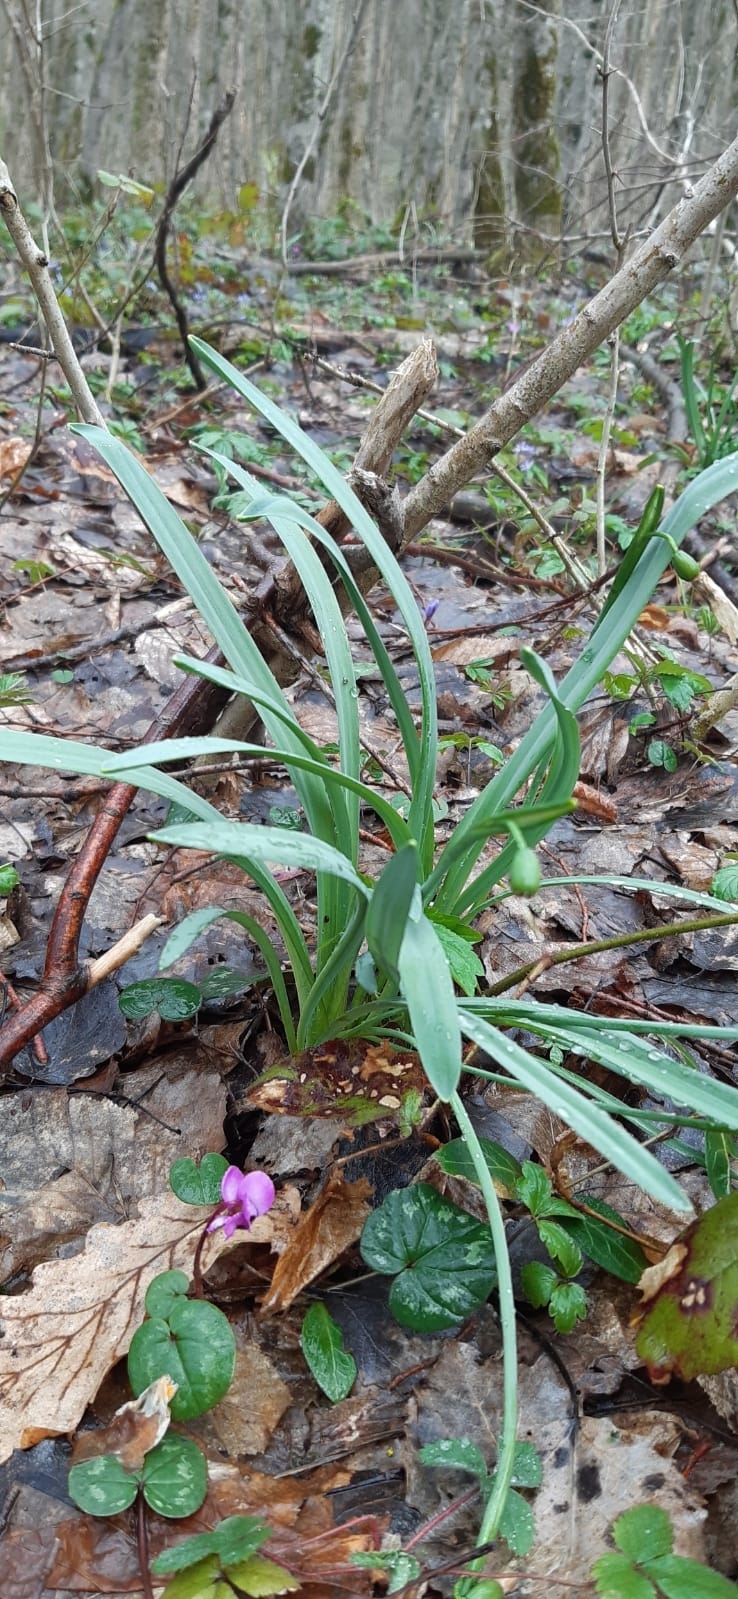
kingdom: Plantae
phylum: Tracheophyta
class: Liliopsida
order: Asparagales
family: Amaryllidaceae
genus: Galanthus
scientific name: Galanthus alpinus
